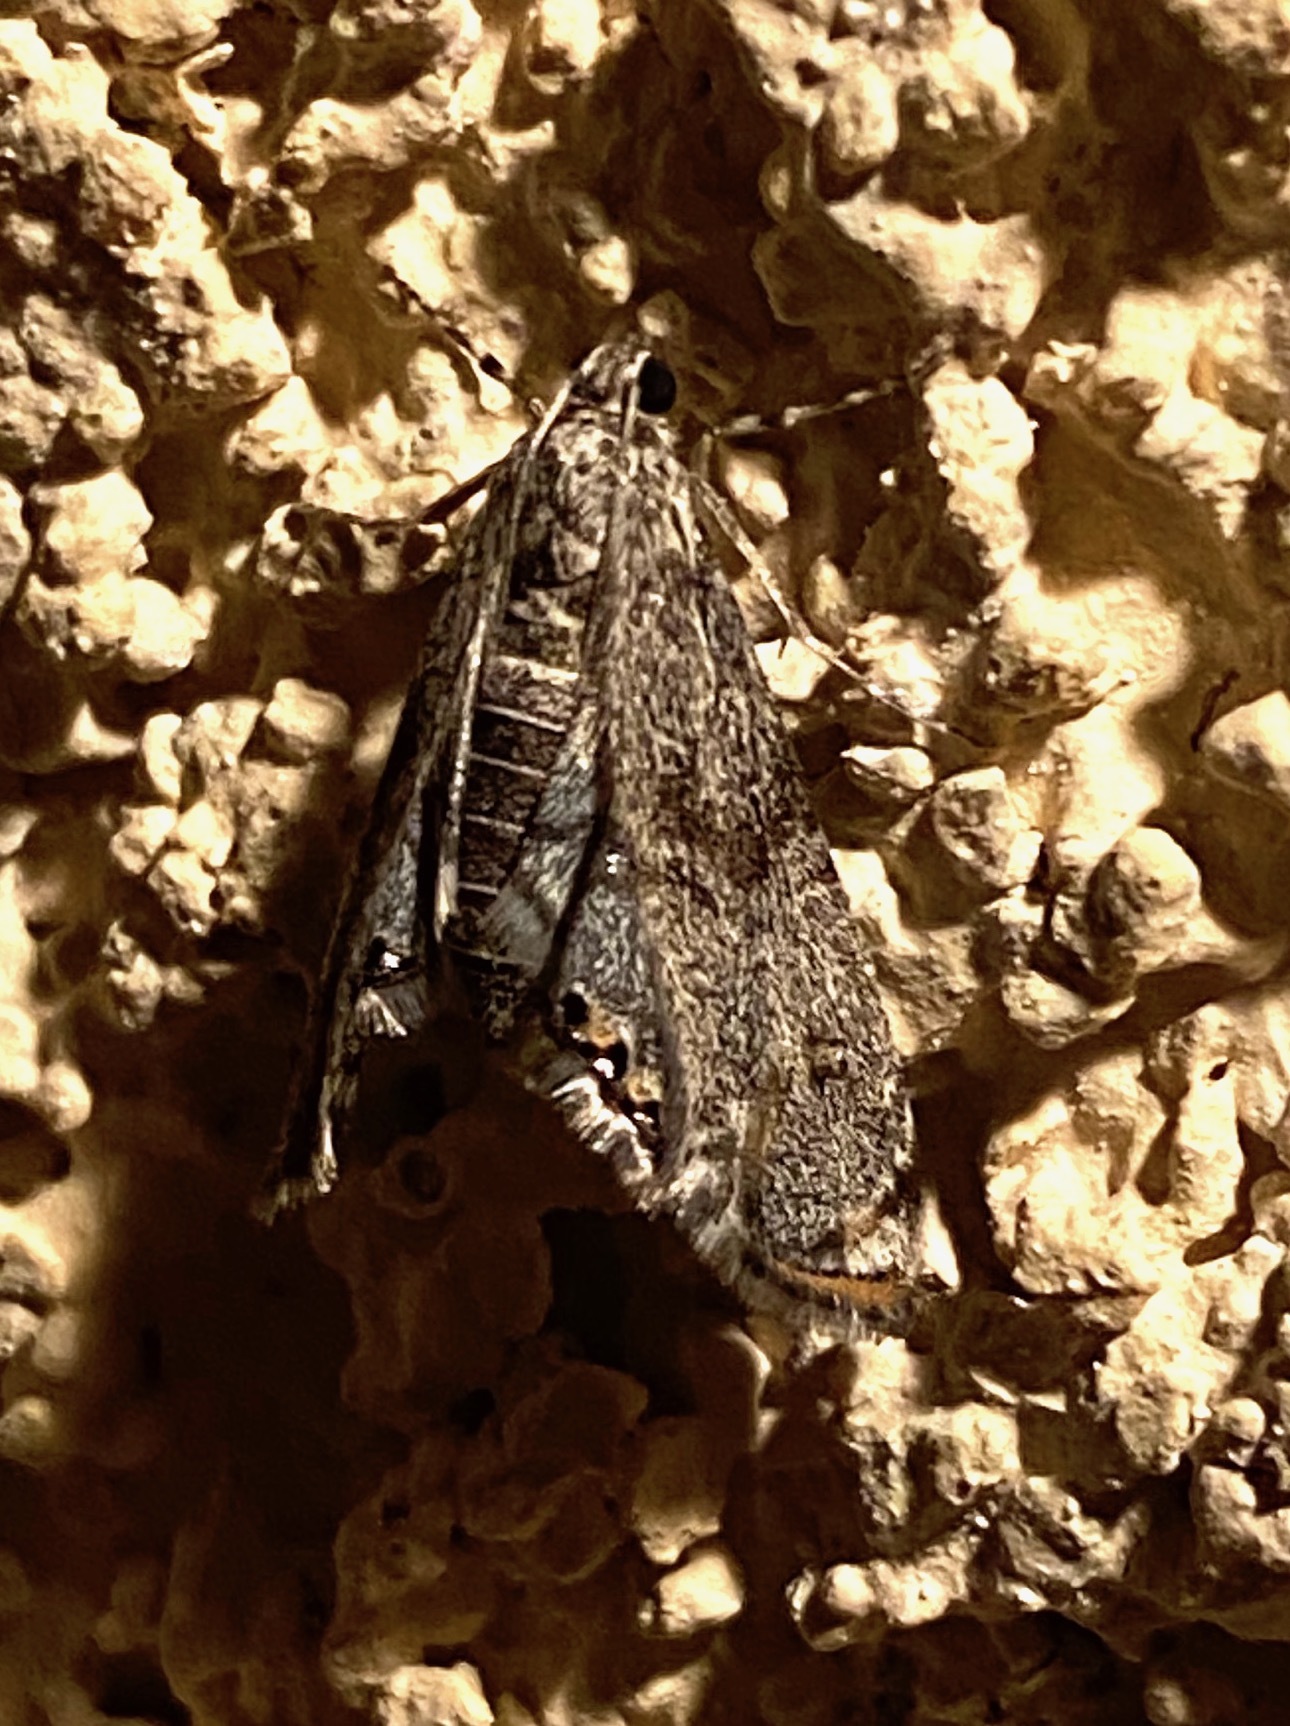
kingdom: Animalia
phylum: Arthropoda
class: Insecta
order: Lepidoptera
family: Crambidae
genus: Petrophila
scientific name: Petrophila schaefferalis
